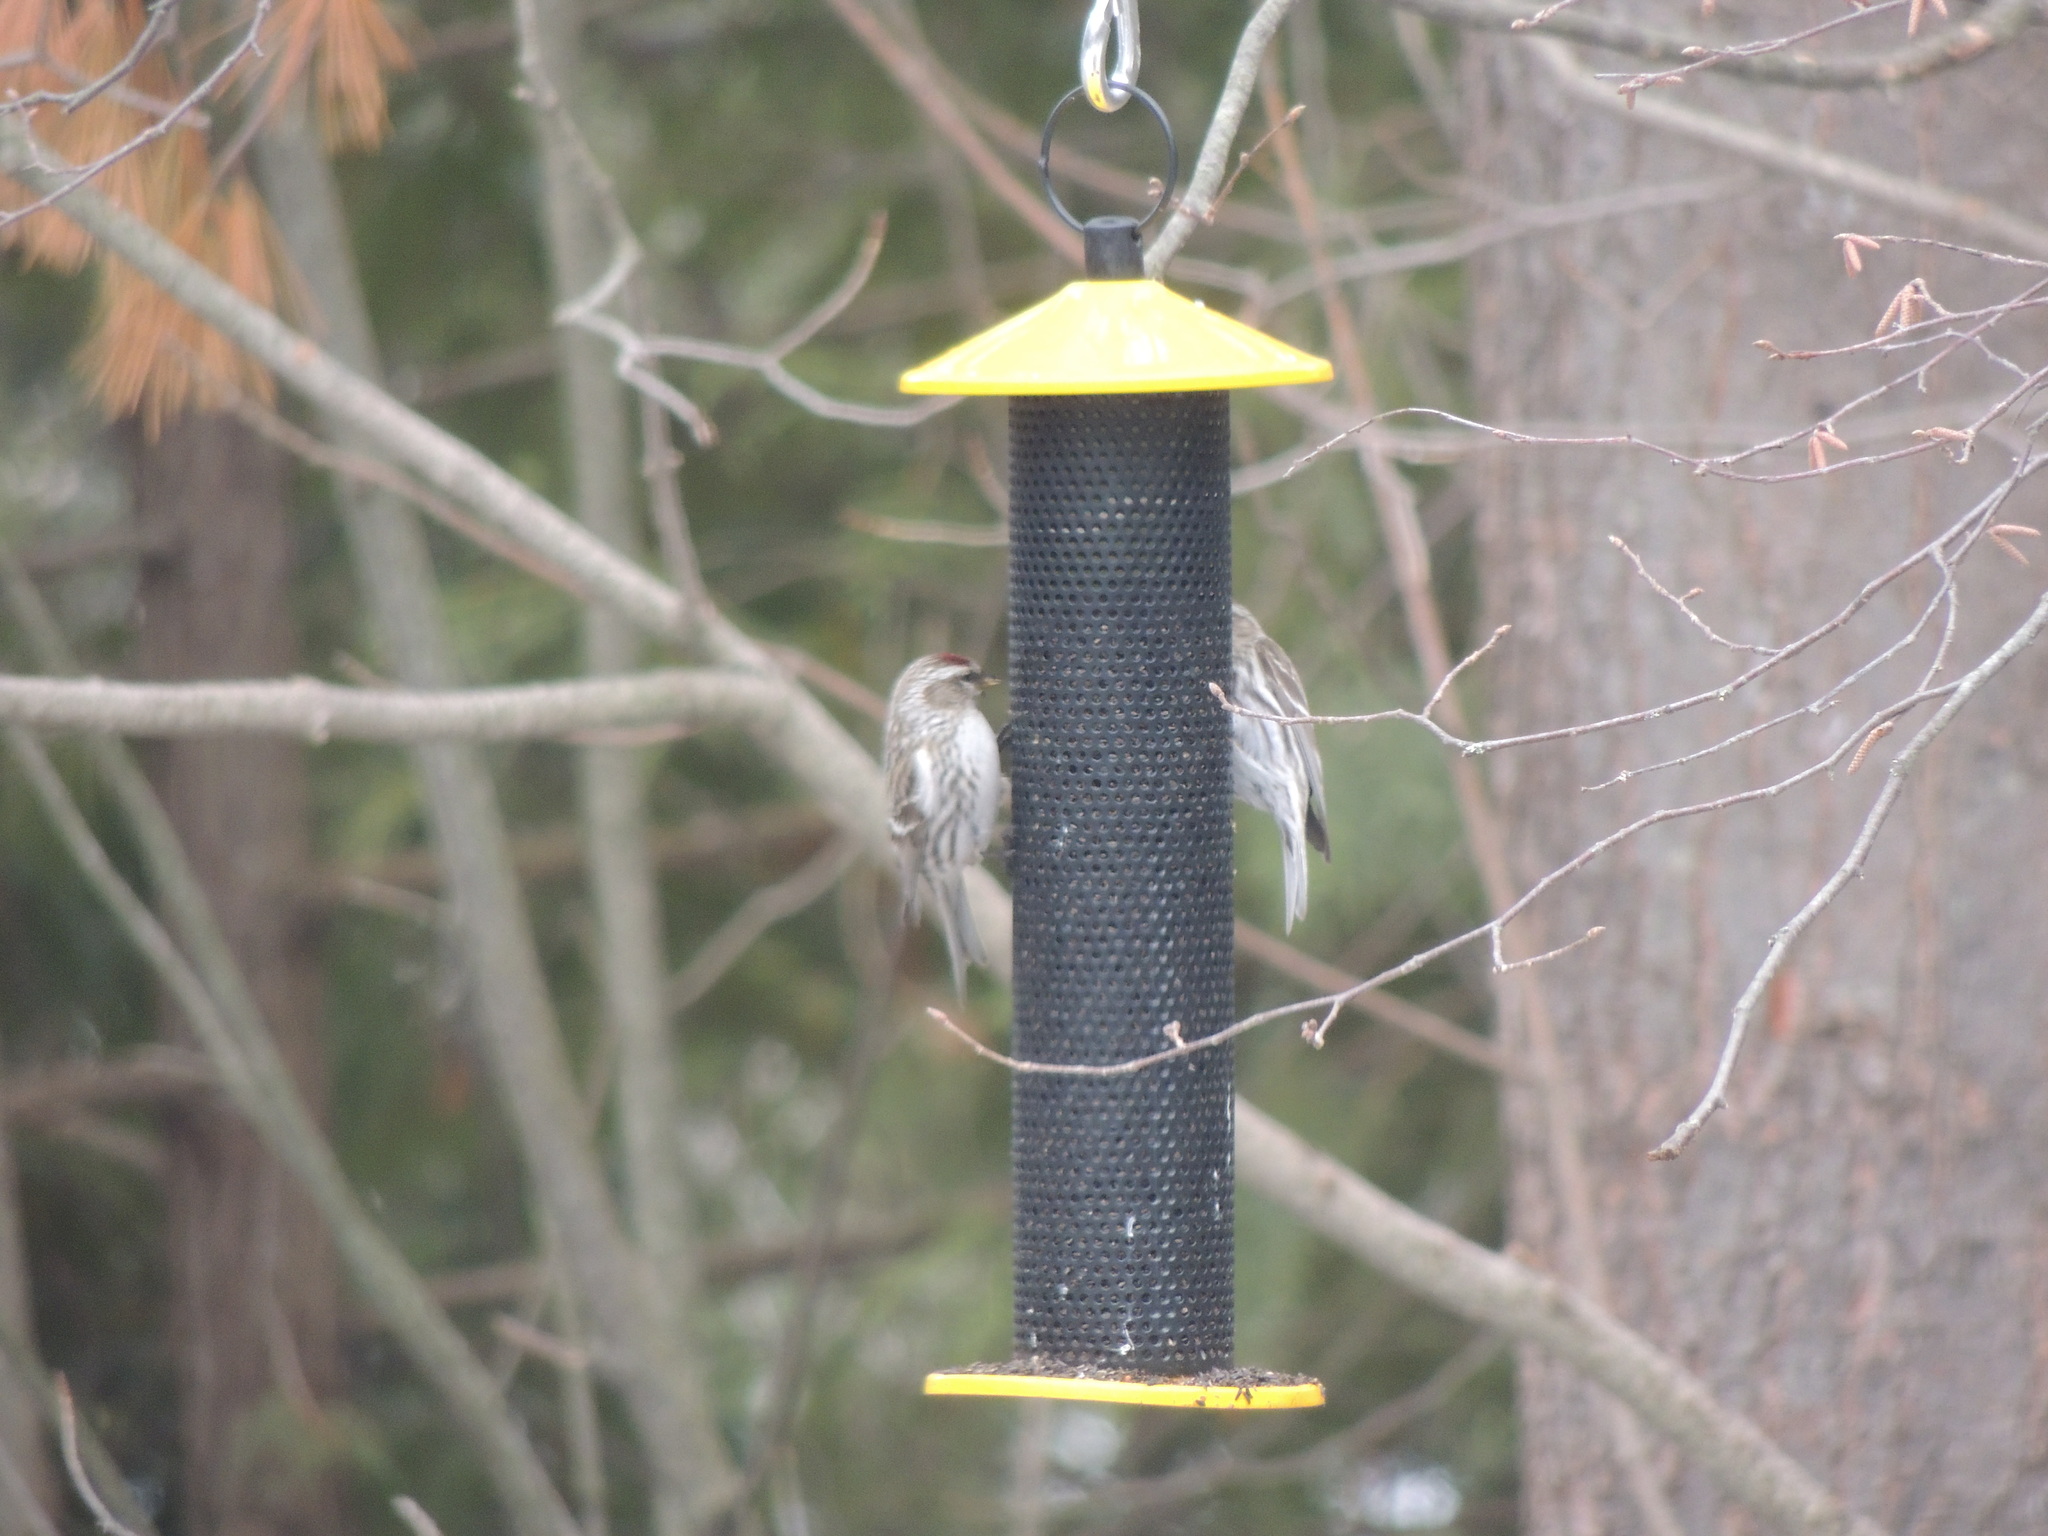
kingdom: Animalia
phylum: Chordata
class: Aves
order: Passeriformes
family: Fringillidae
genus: Acanthis
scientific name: Acanthis flammea
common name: Common redpoll
